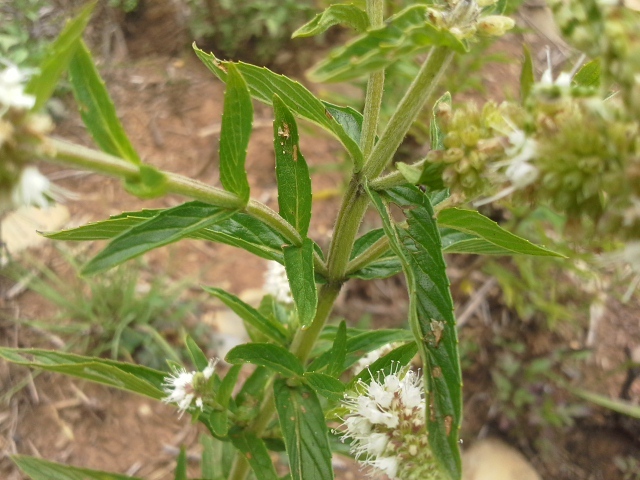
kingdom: Plantae
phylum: Tracheophyta
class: Magnoliopsida
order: Lamiales
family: Lamiaceae
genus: Mentha
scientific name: Mentha longifolia
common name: Horse mint
